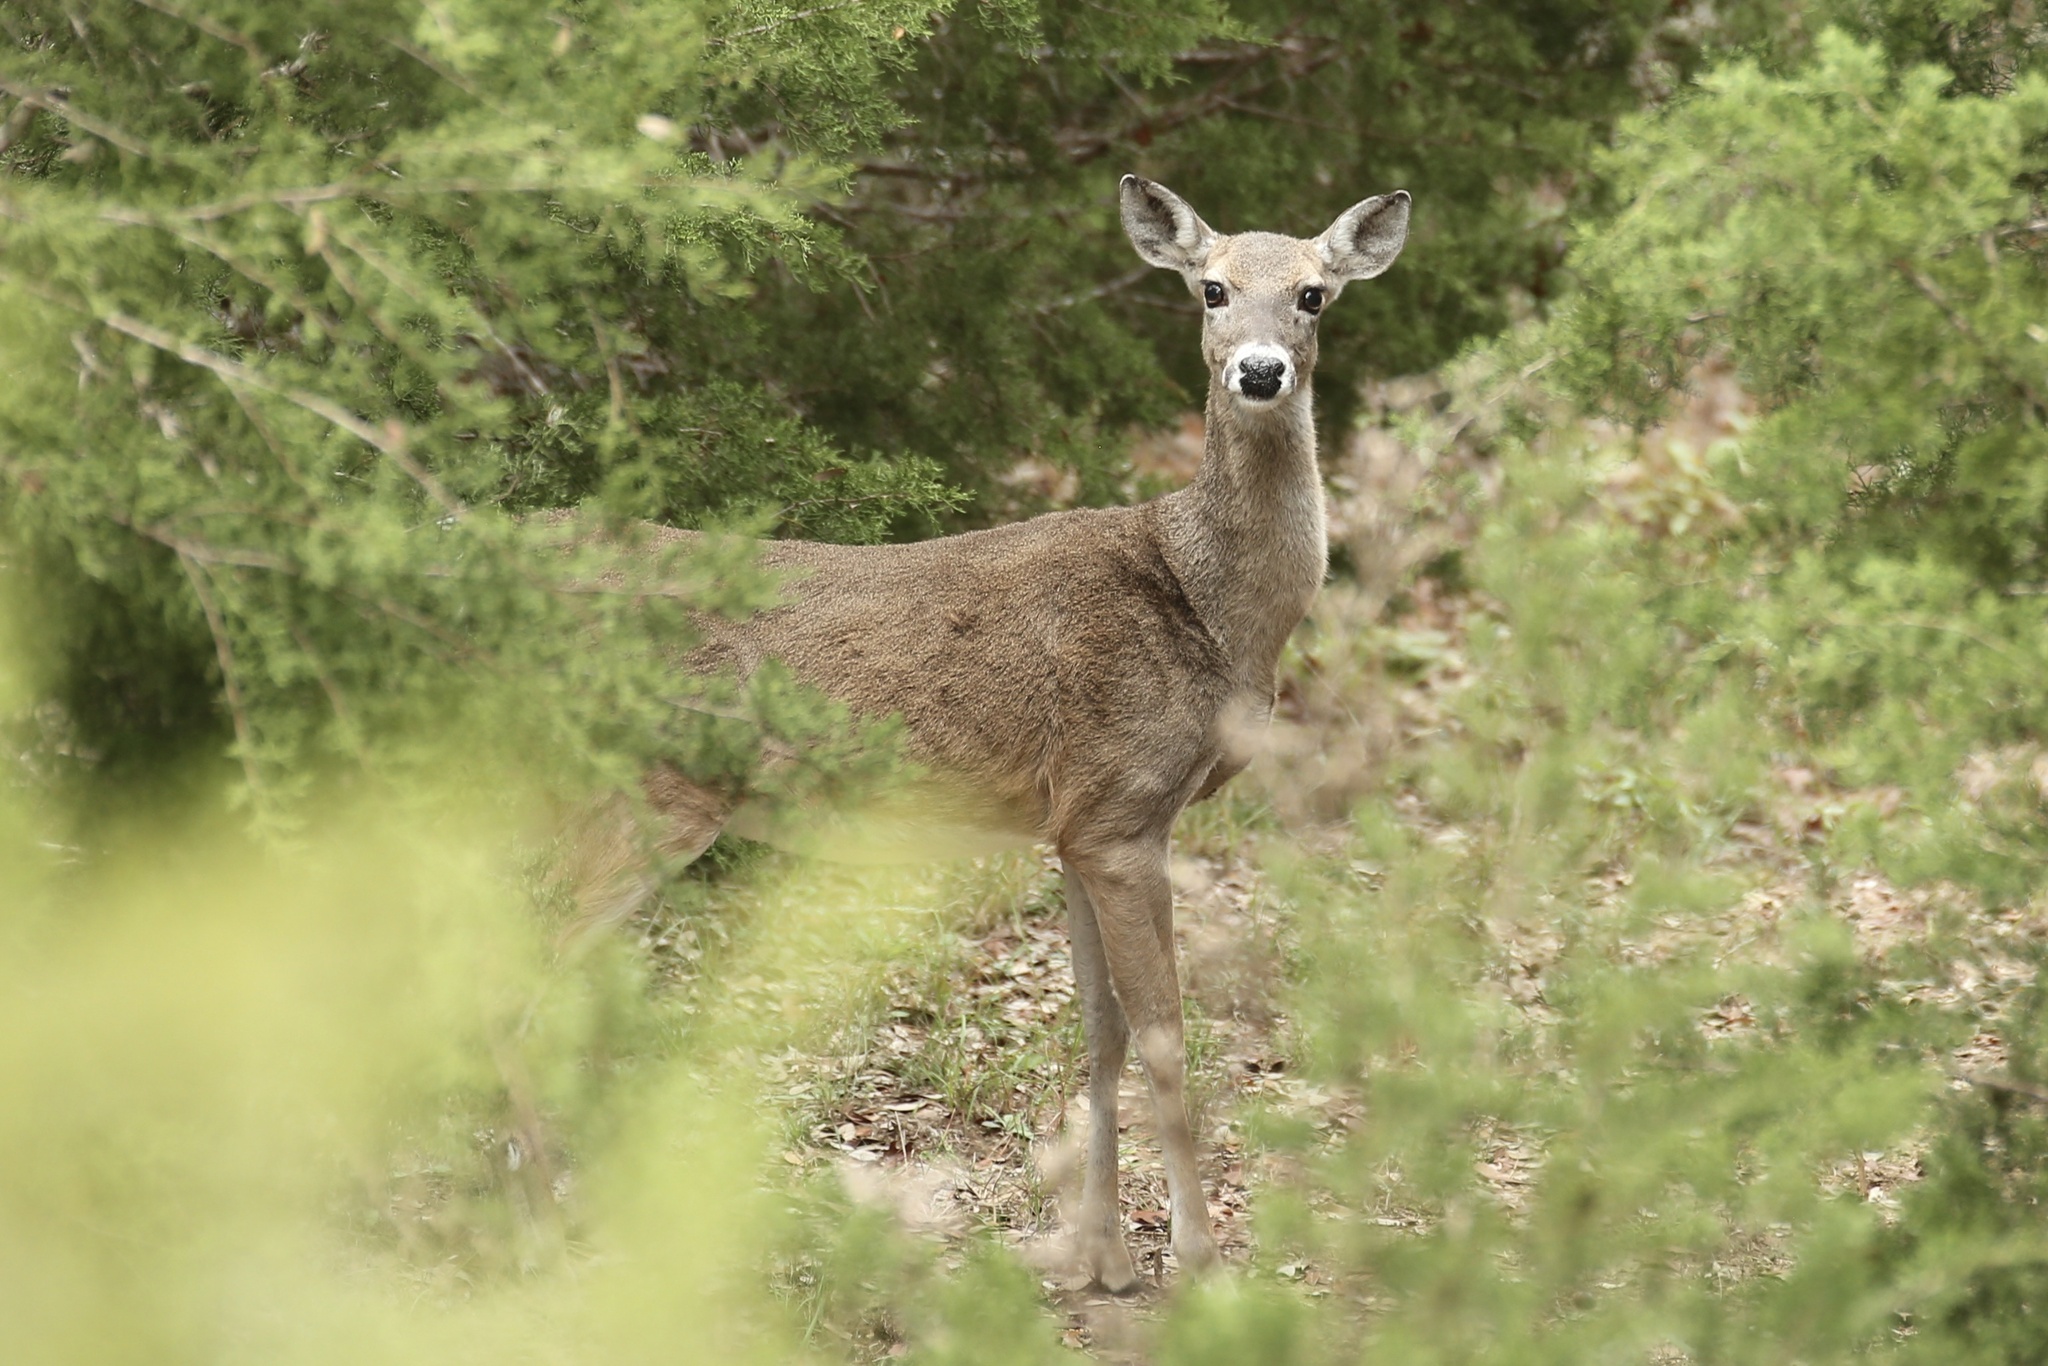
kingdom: Animalia
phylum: Chordata
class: Mammalia
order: Artiodactyla
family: Cervidae
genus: Odocoileus
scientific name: Odocoileus virginianus
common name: White-tailed deer
